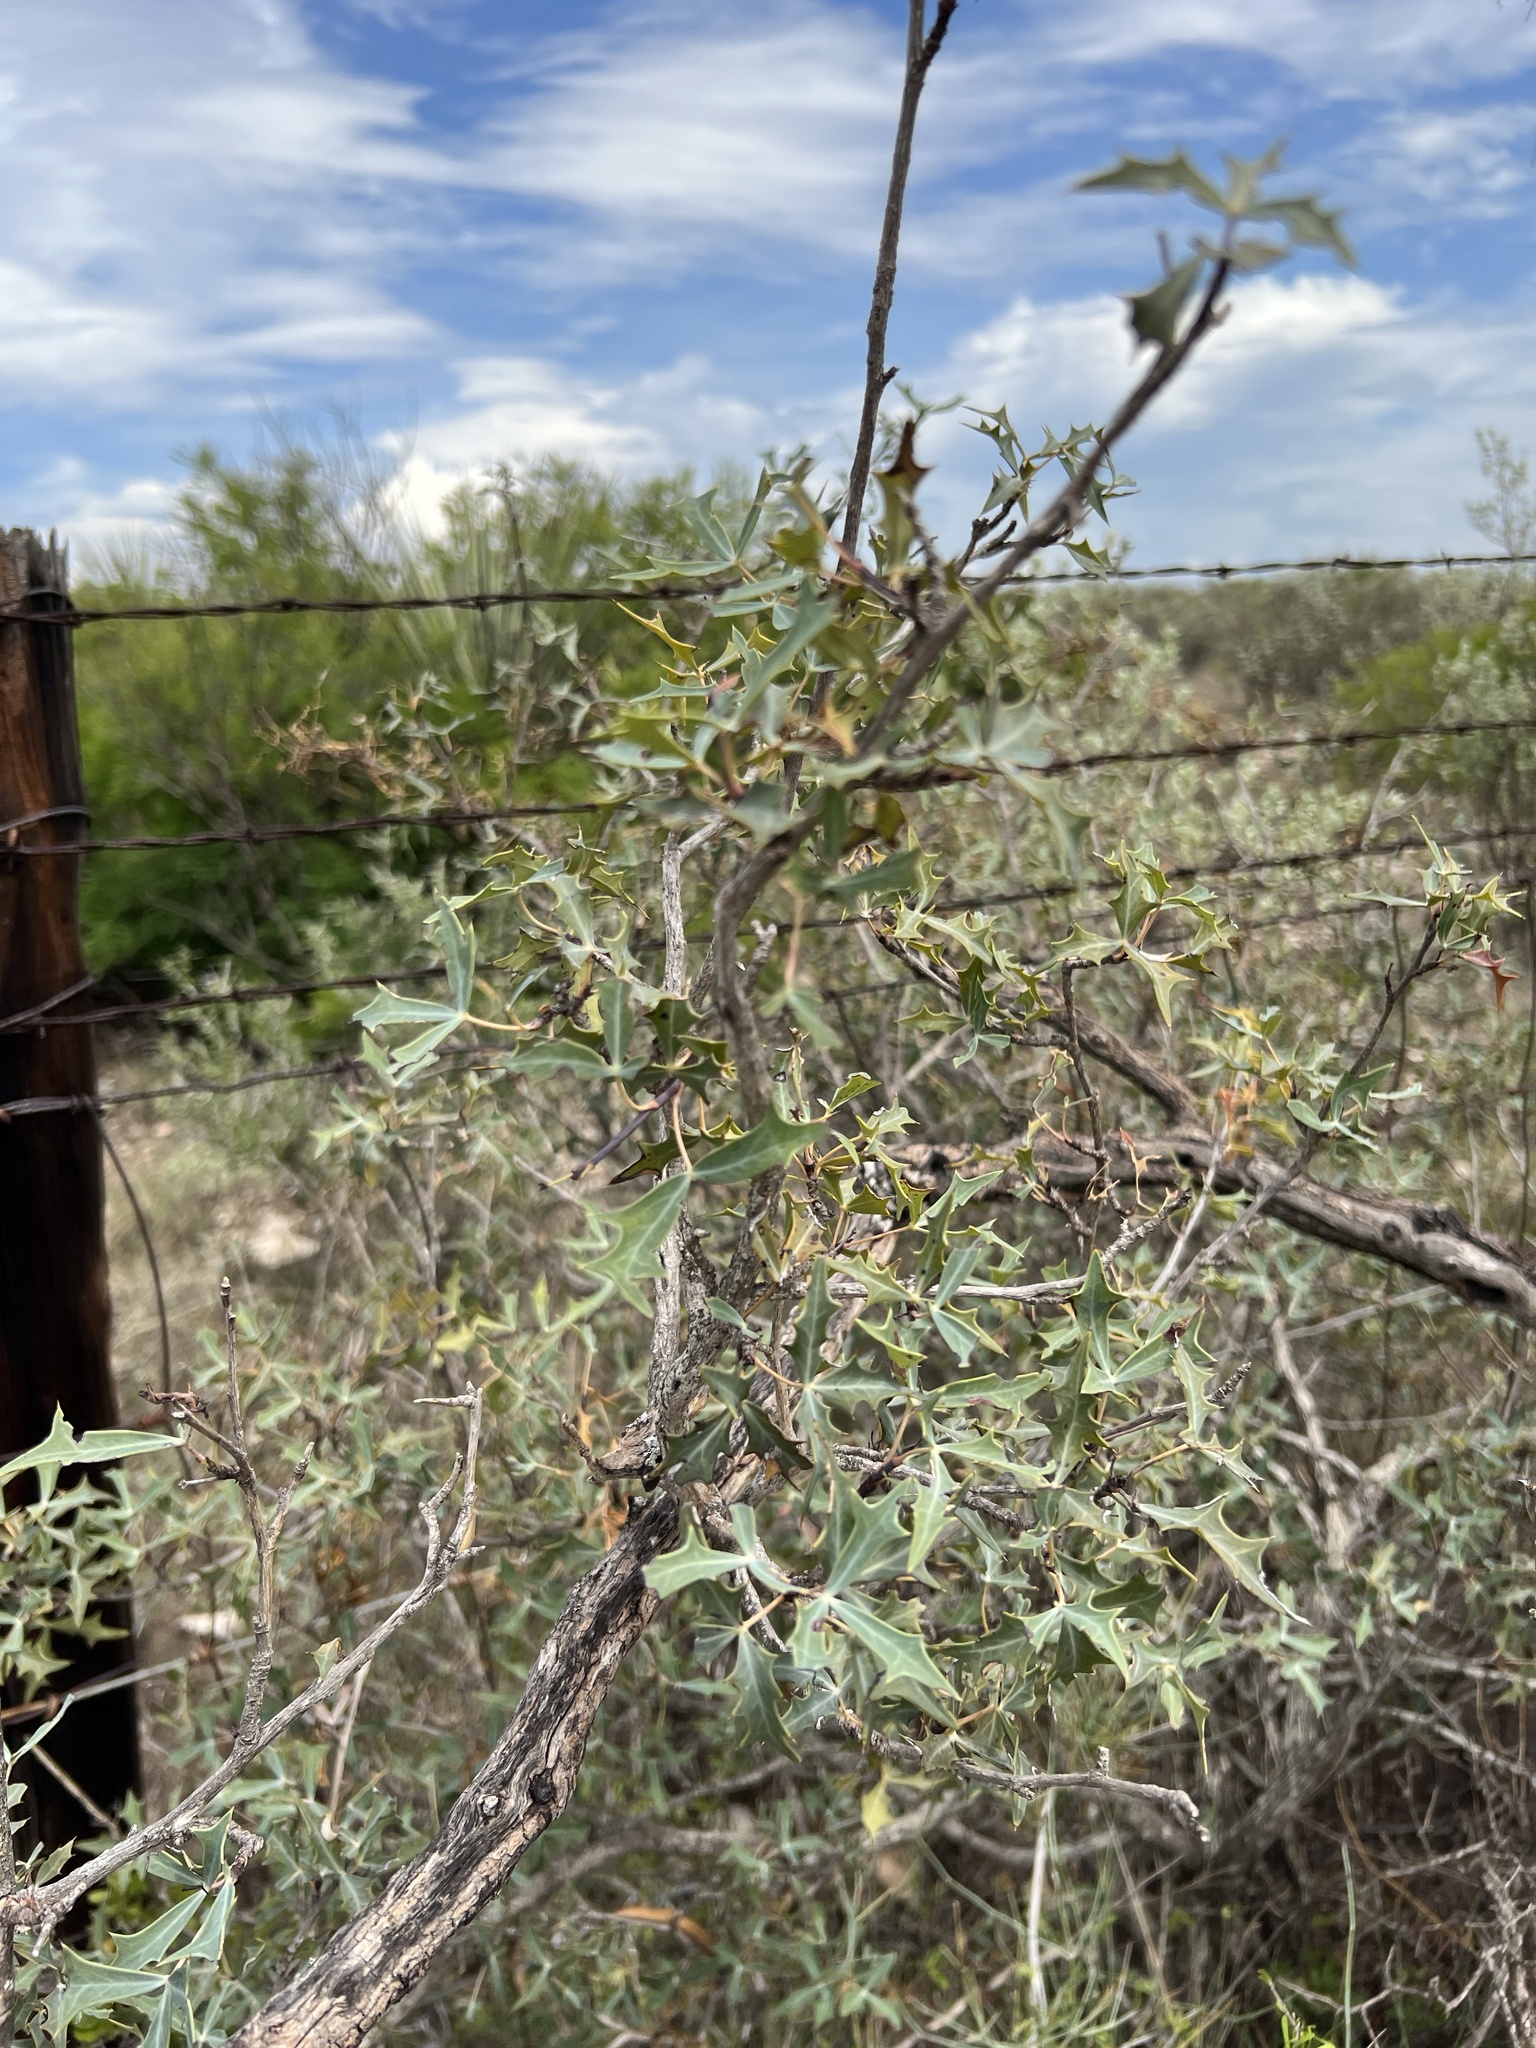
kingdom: Plantae
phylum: Tracheophyta
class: Magnoliopsida
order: Ranunculales
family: Berberidaceae
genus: Alloberberis
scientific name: Alloberberis trifoliolata
